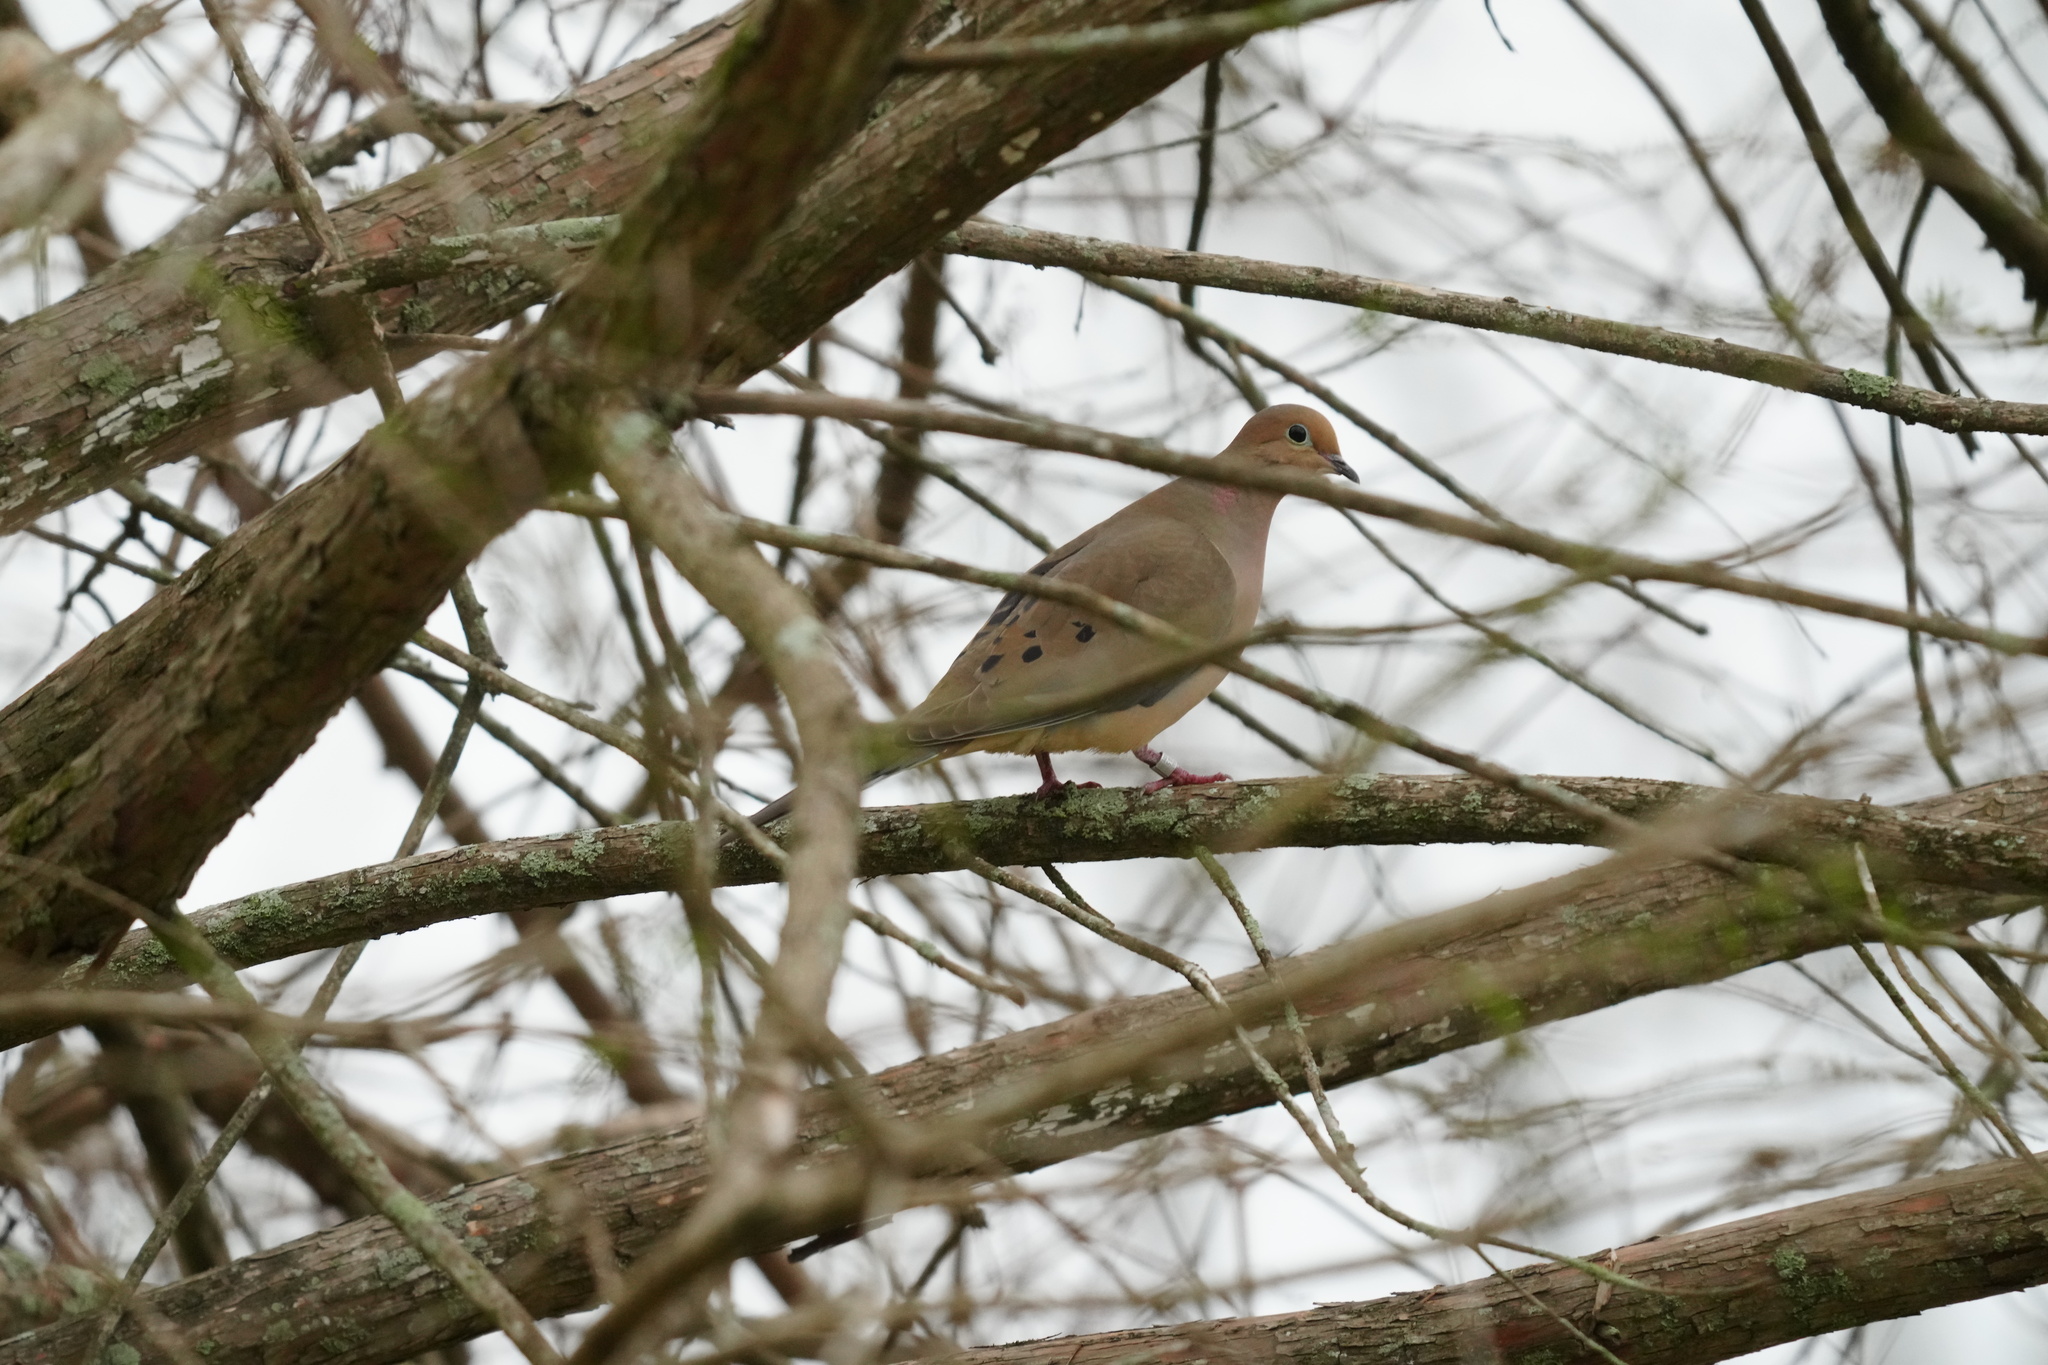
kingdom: Animalia
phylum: Chordata
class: Aves
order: Columbiformes
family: Columbidae
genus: Zenaida
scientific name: Zenaida macroura
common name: Mourning dove
